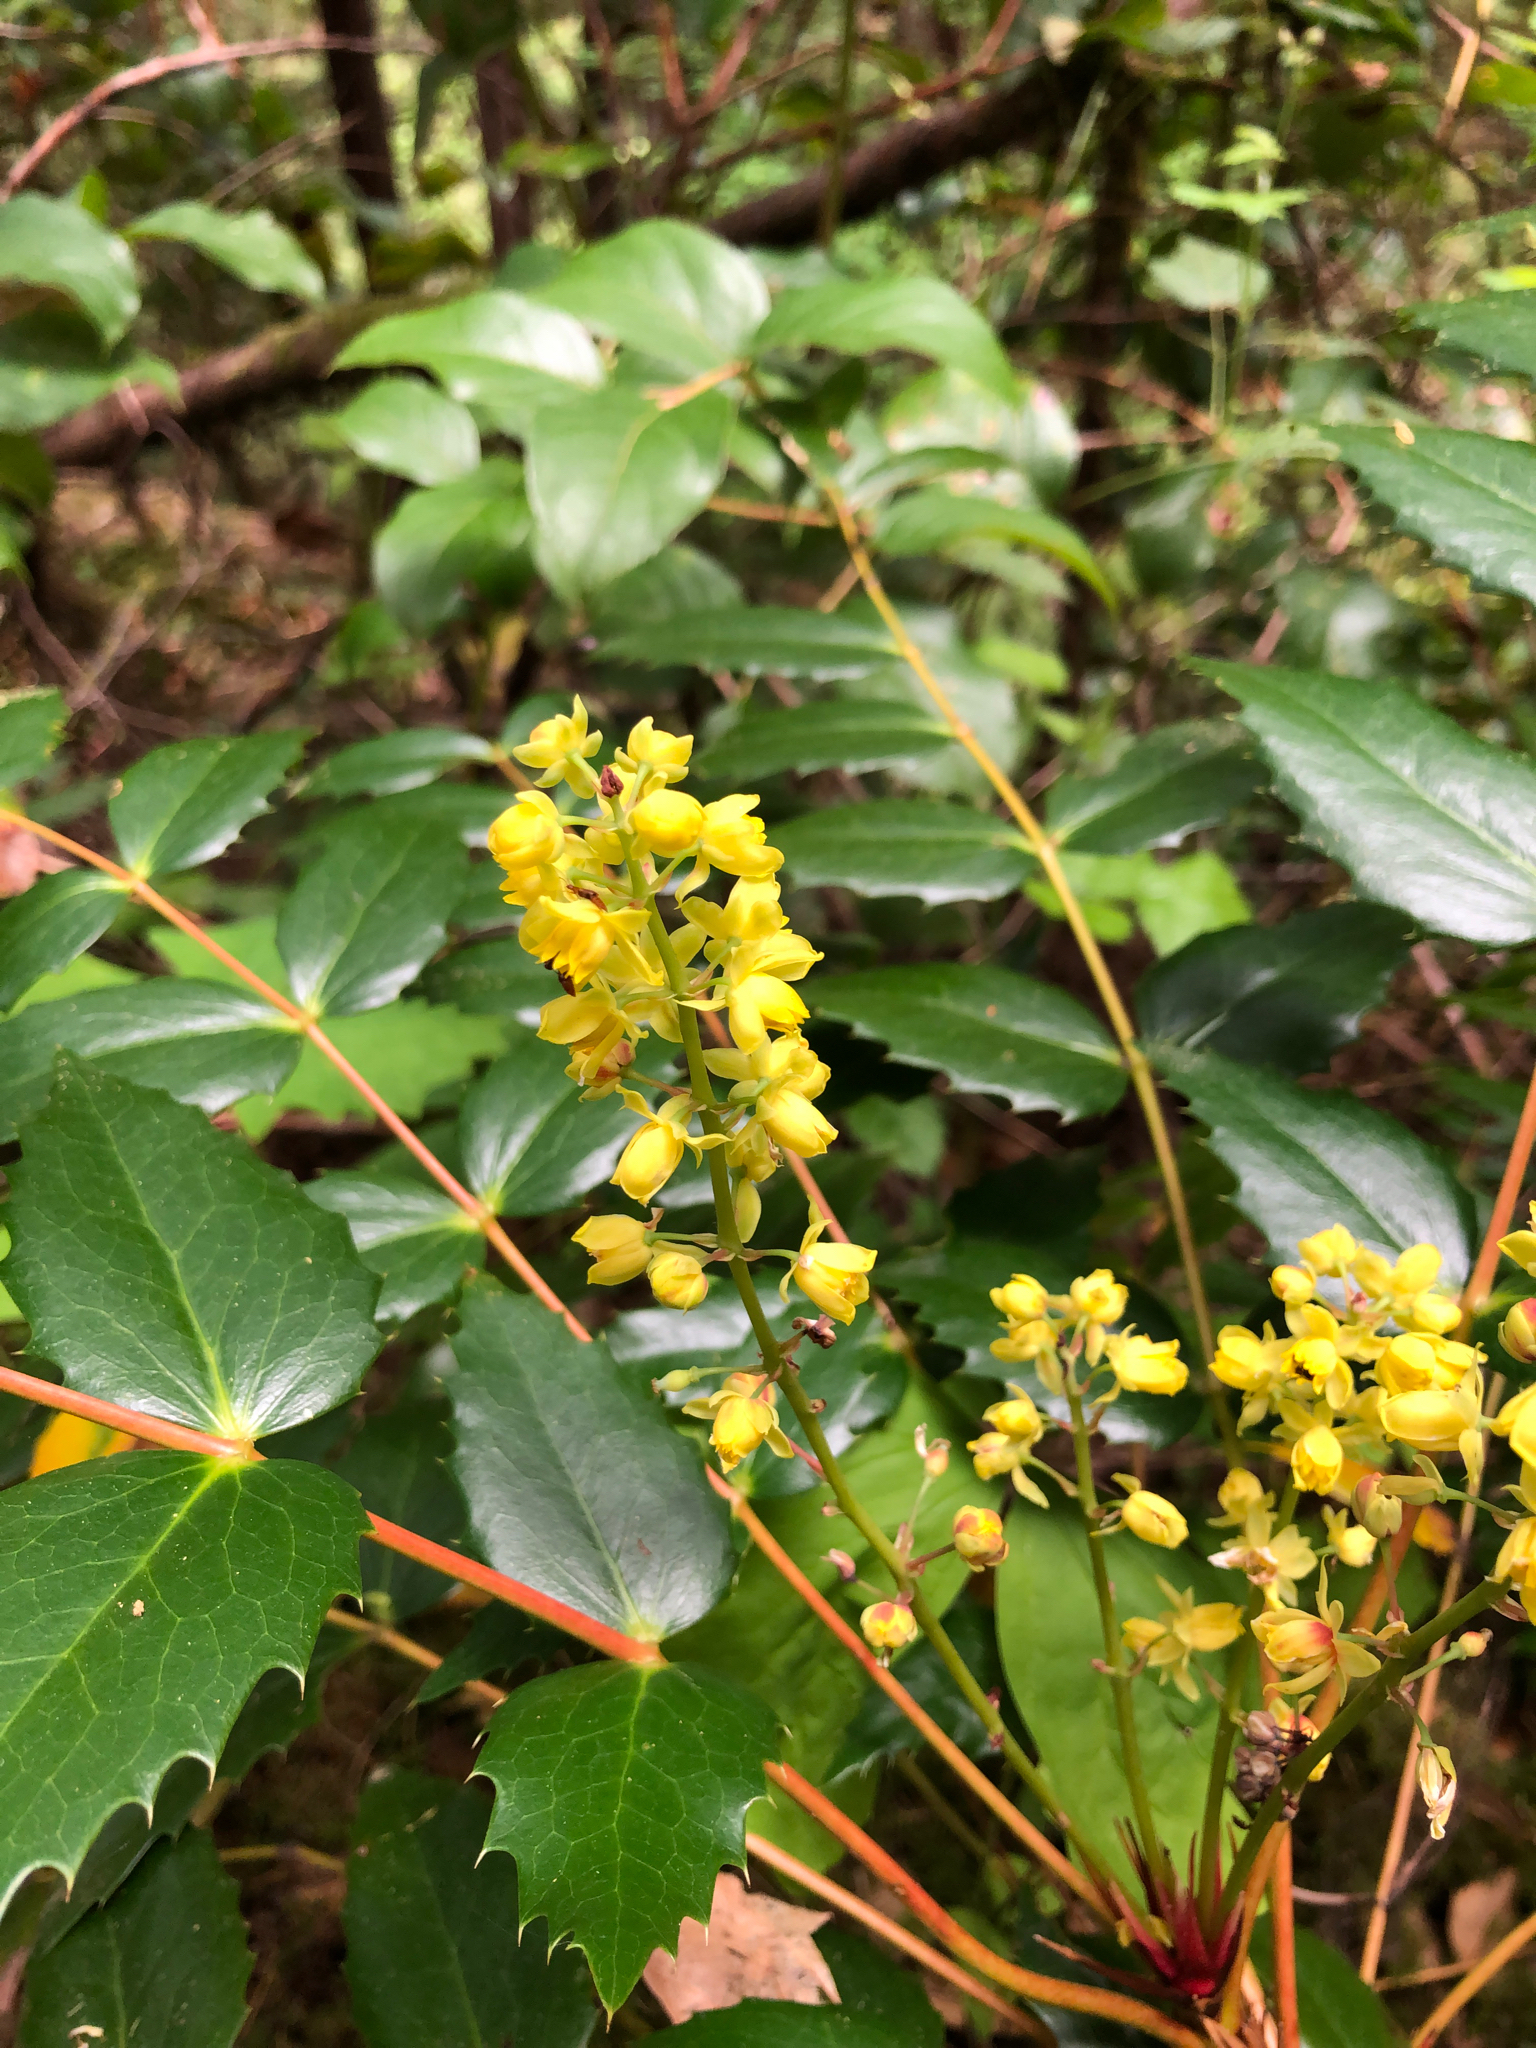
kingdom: Plantae
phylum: Tracheophyta
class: Magnoliopsida
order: Ranunculales
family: Berberidaceae
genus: Mahonia
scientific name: Mahonia nervosa
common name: Cascade oregon-grape
